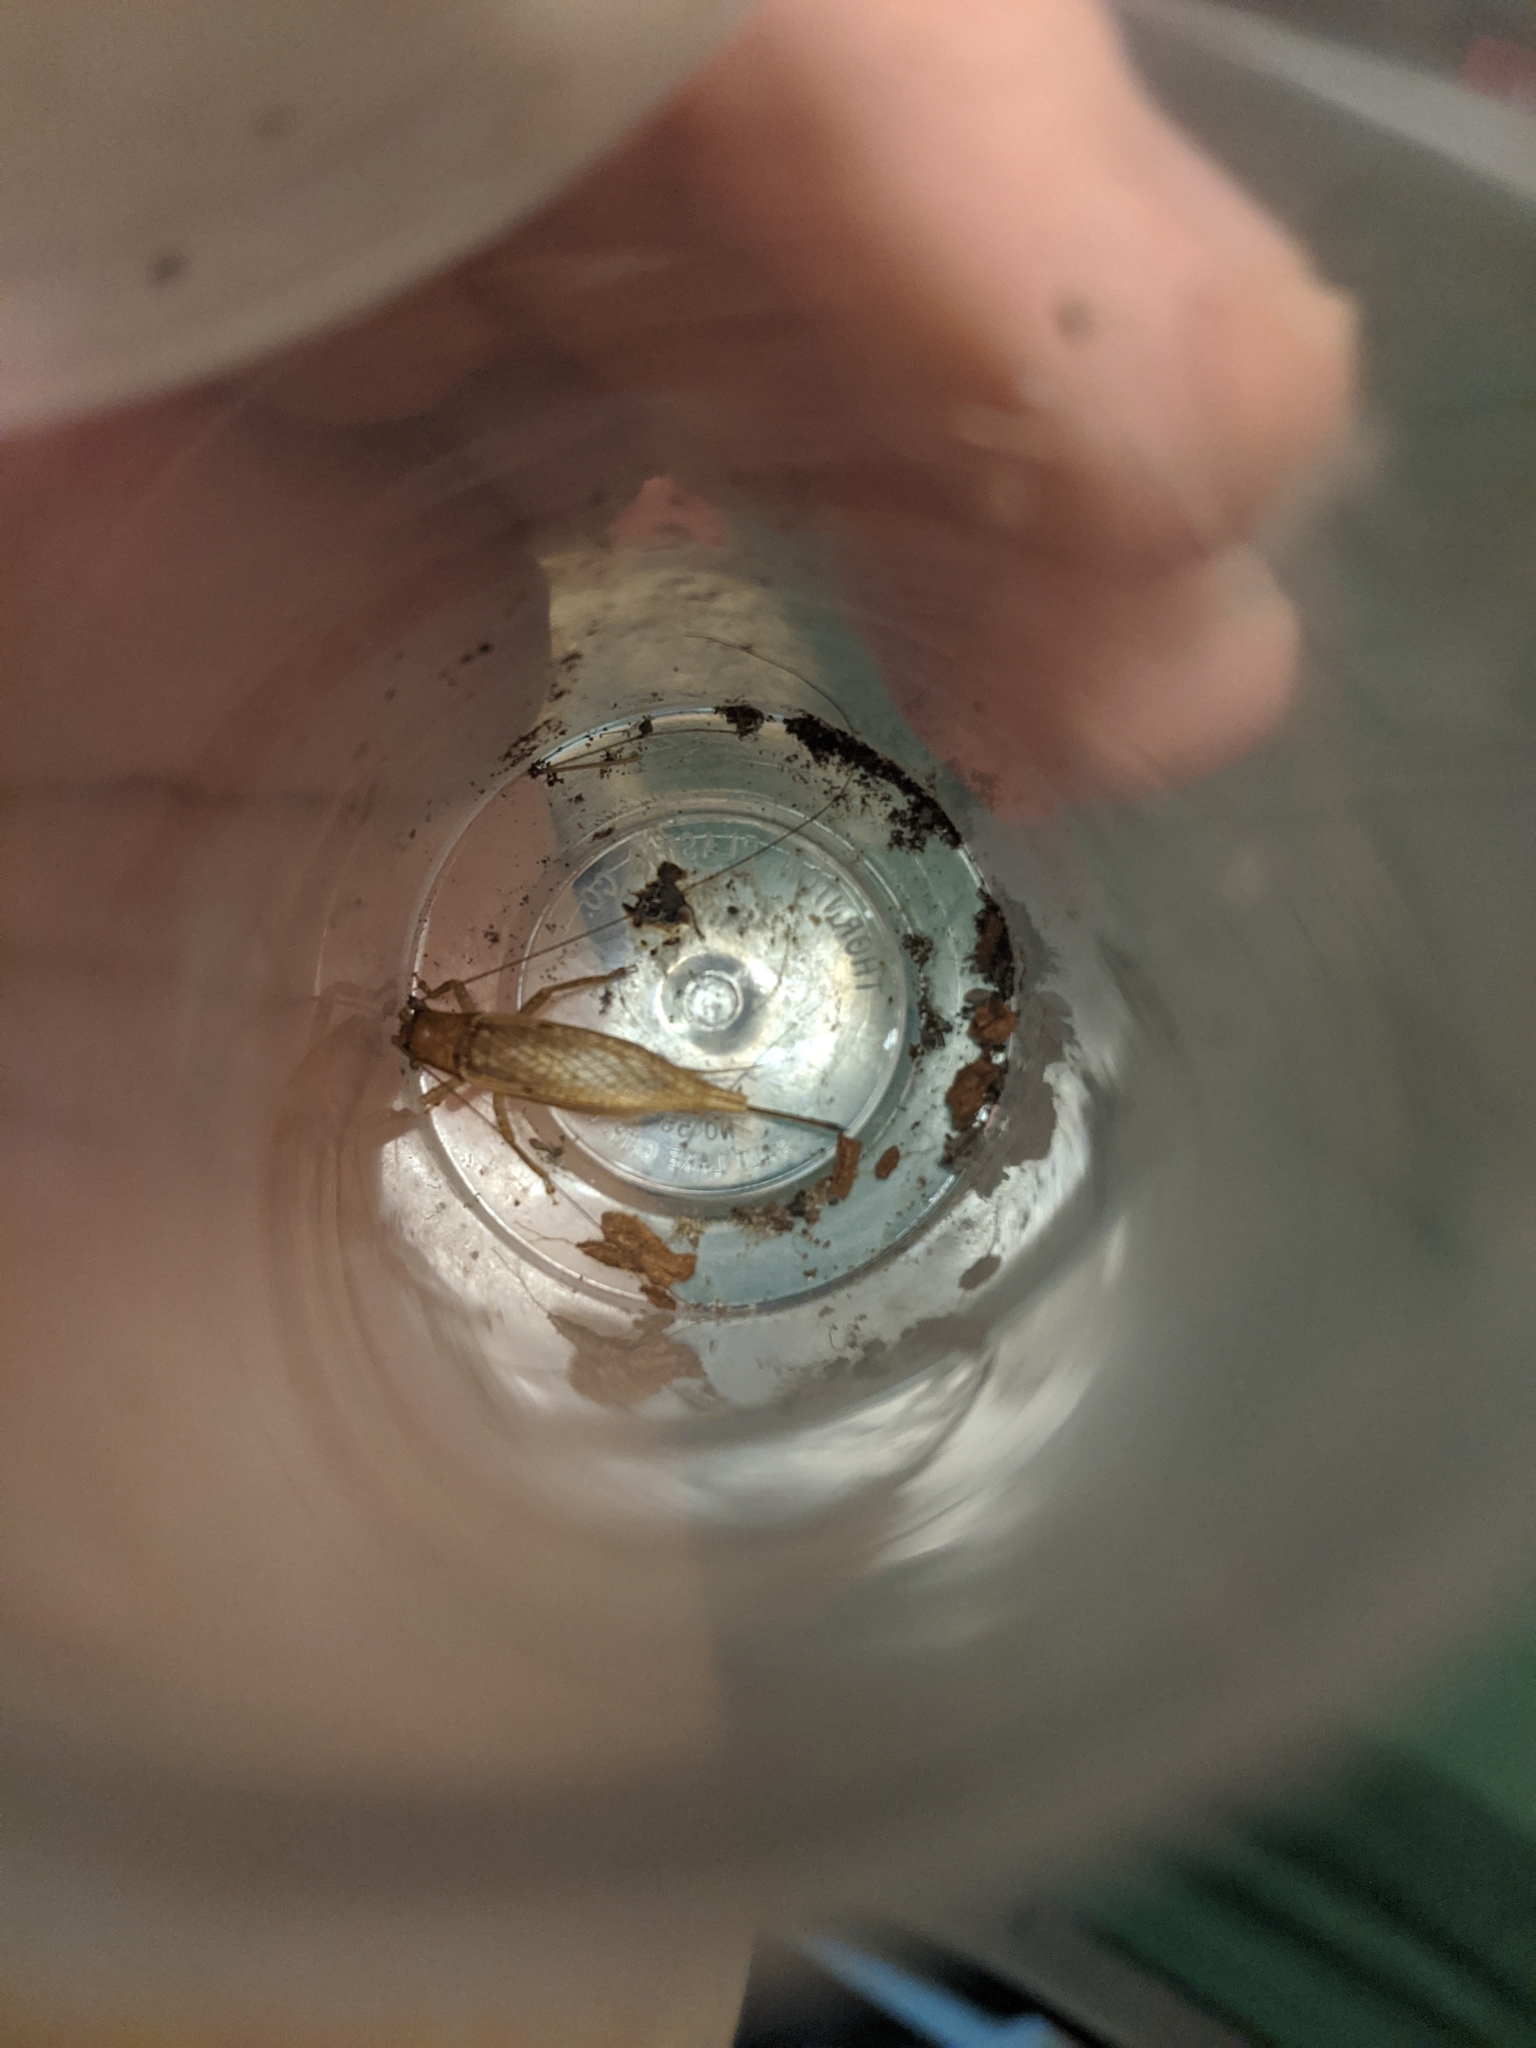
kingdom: Animalia
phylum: Arthropoda
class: Insecta
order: Orthoptera
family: Gryllidae
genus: Hapithus
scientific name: Hapithus saltator
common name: Jumping bush cricket
